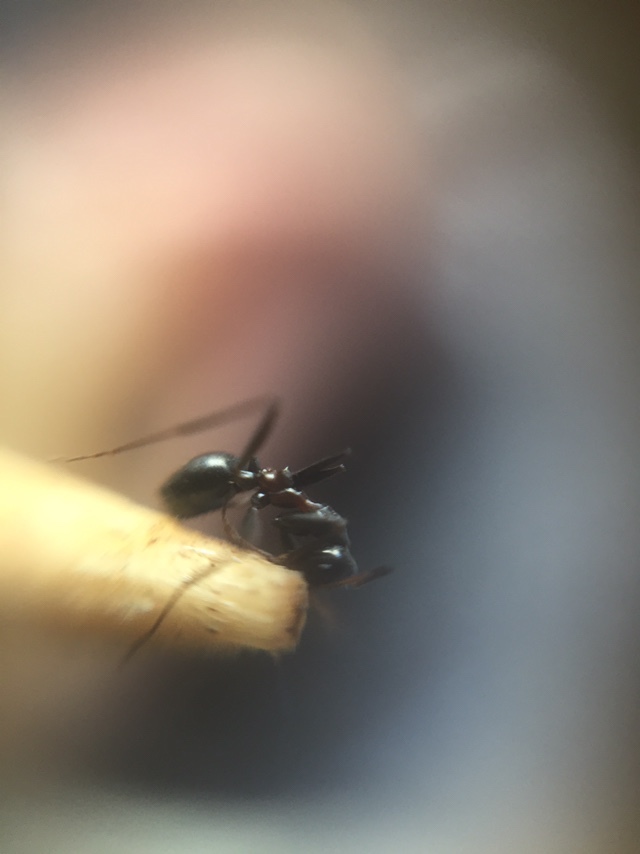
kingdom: Animalia
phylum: Arthropoda
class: Insecta
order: Hymenoptera
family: Formicidae
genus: Lepisiota
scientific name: Lepisiota integra
